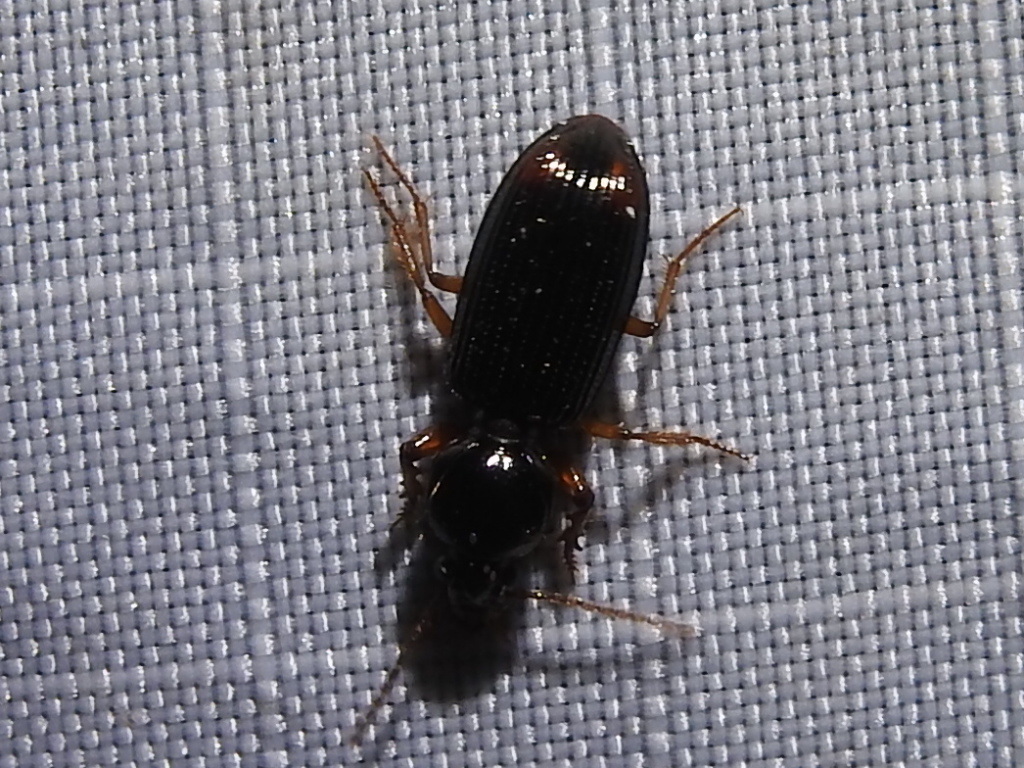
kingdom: Animalia
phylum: Arthropoda
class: Insecta
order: Coleoptera
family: Carabidae
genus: Aspidoglossa
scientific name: Aspidoglossa subangulata
